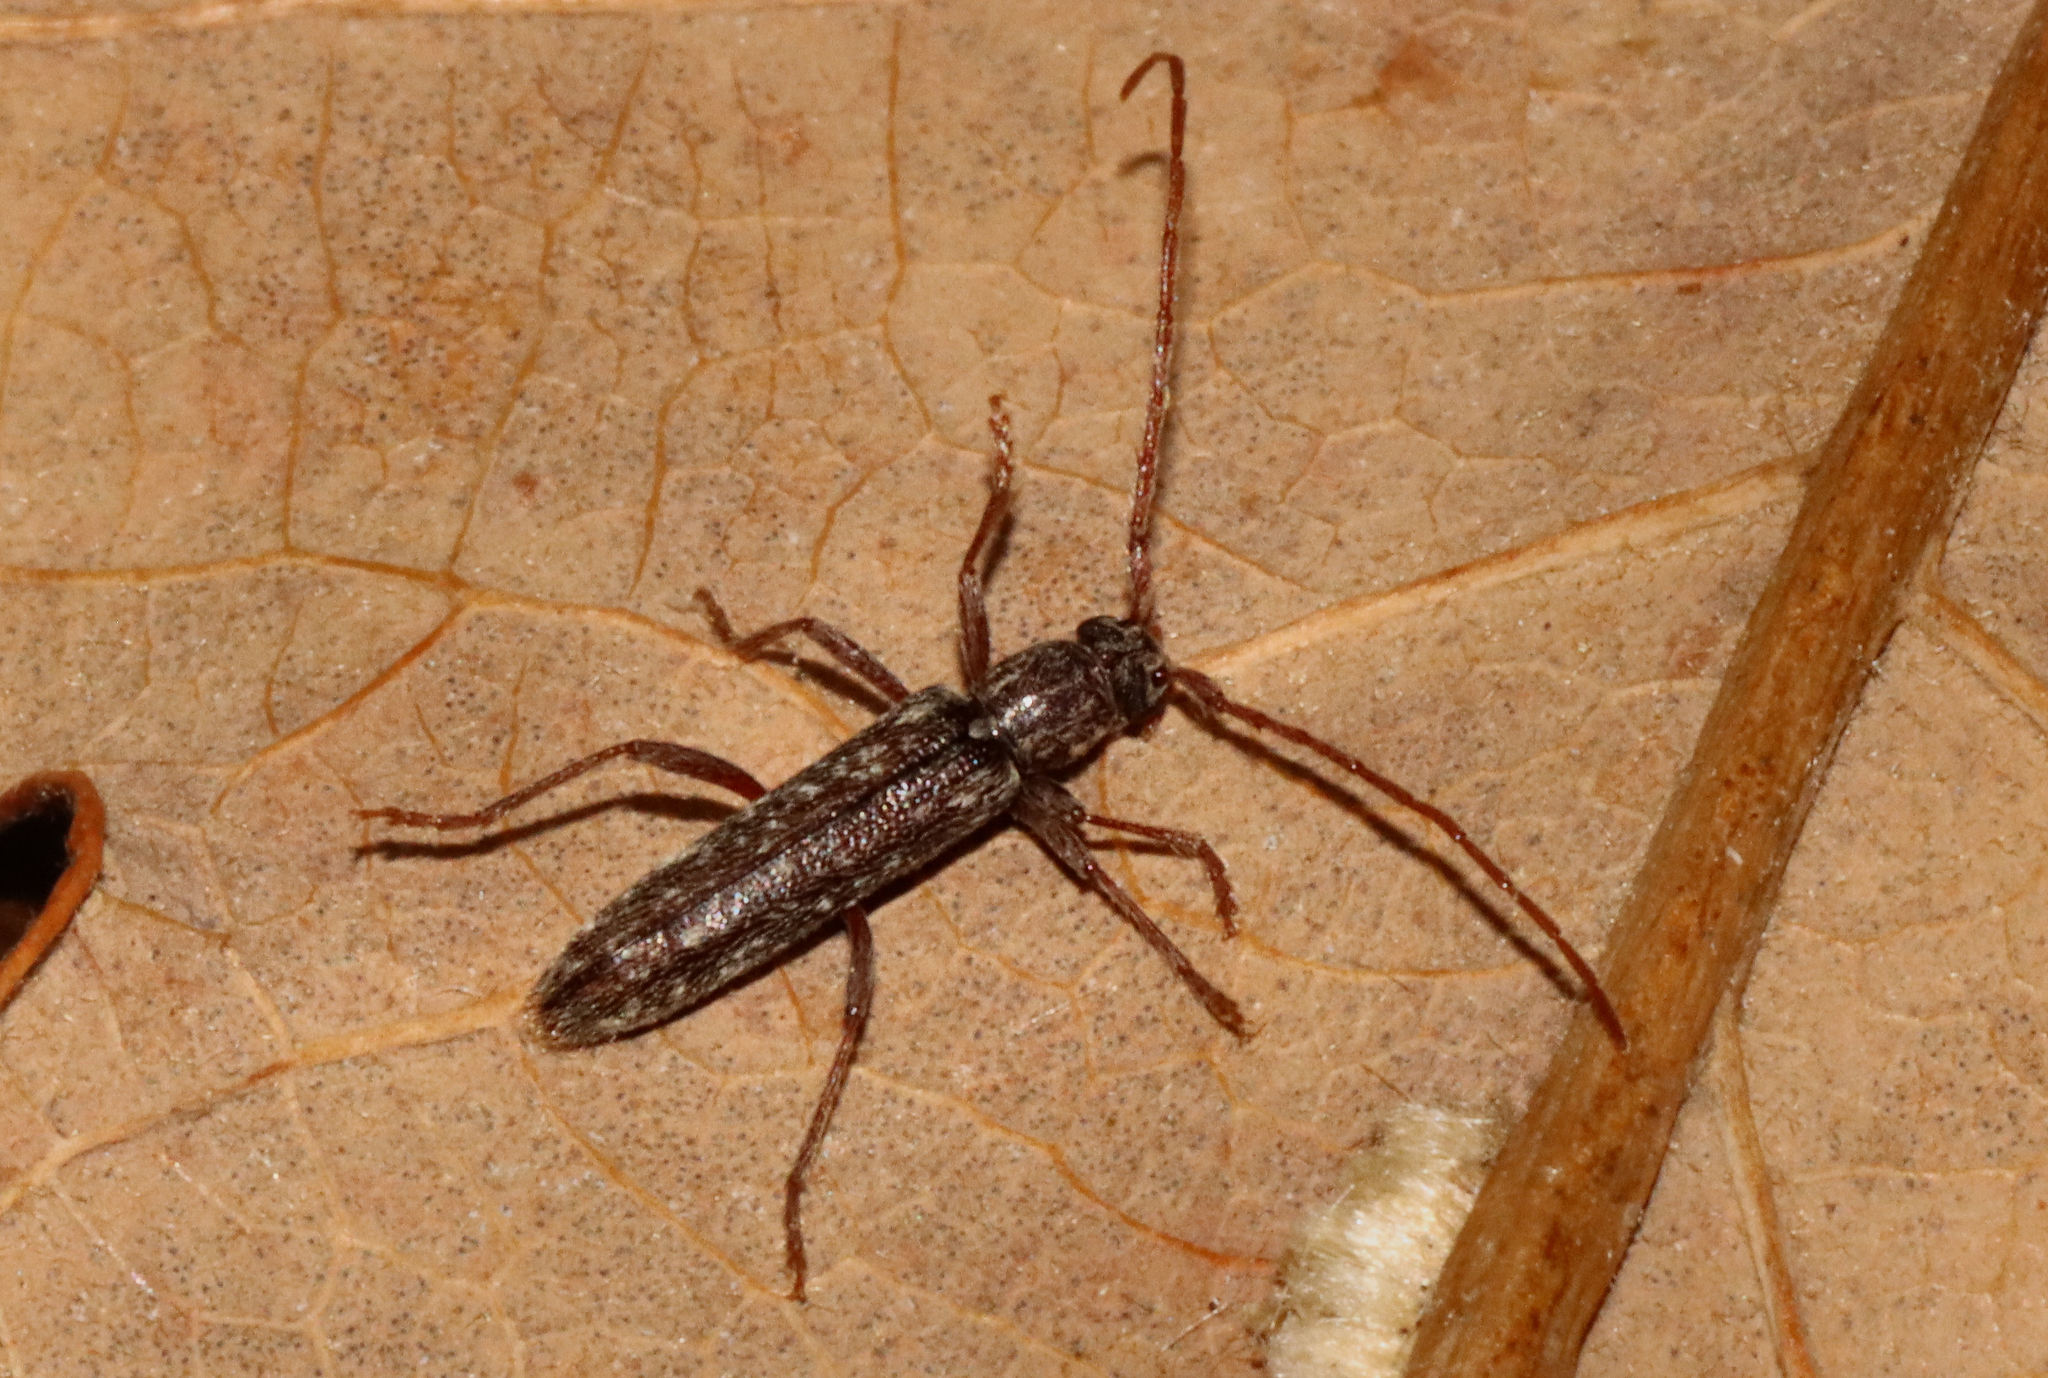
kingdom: Animalia
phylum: Arthropoda
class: Insecta
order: Coleoptera
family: Cerambycidae
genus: Anelaphus
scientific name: Anelaphus villosus
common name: Twig pruner
